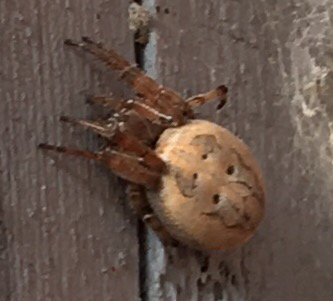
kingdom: Animalia
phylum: Arthropoda
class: Arachnida
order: Araneae
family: Araneidae
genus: Larinioides
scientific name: Larinioides cornutus
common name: Furrow orbweaver
